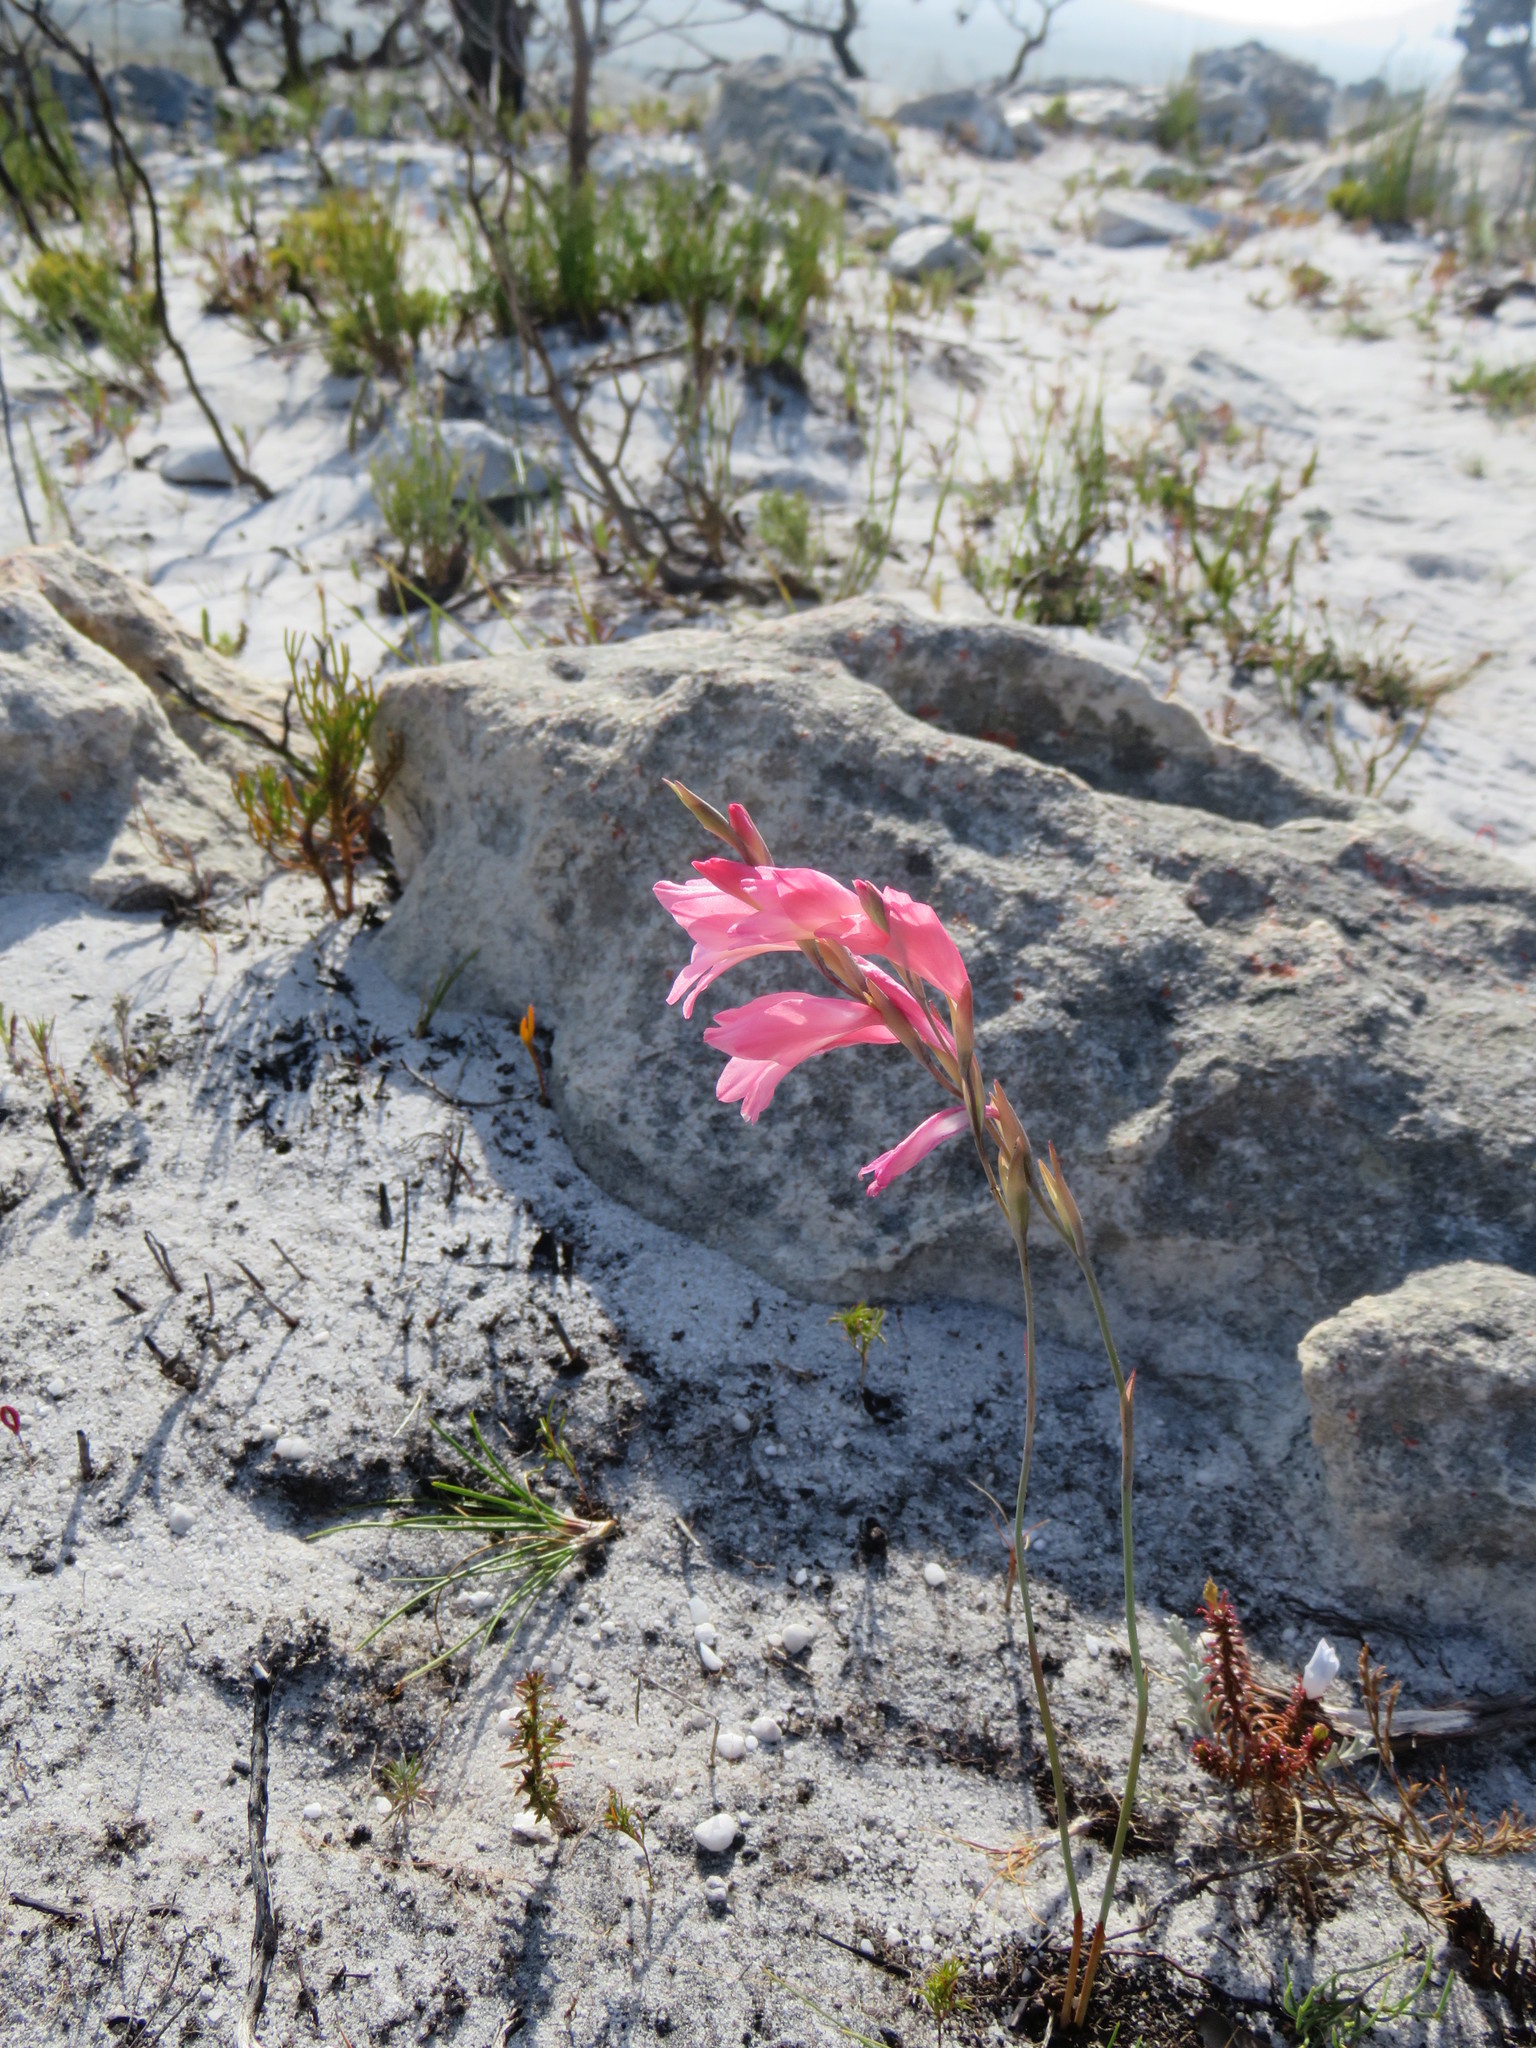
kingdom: Plantae
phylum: Tracheophyta
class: Liliopsida
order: Asparagales
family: Iridaceae
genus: Gladiolus
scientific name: Gladiolus brevifolius
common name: March pypie
